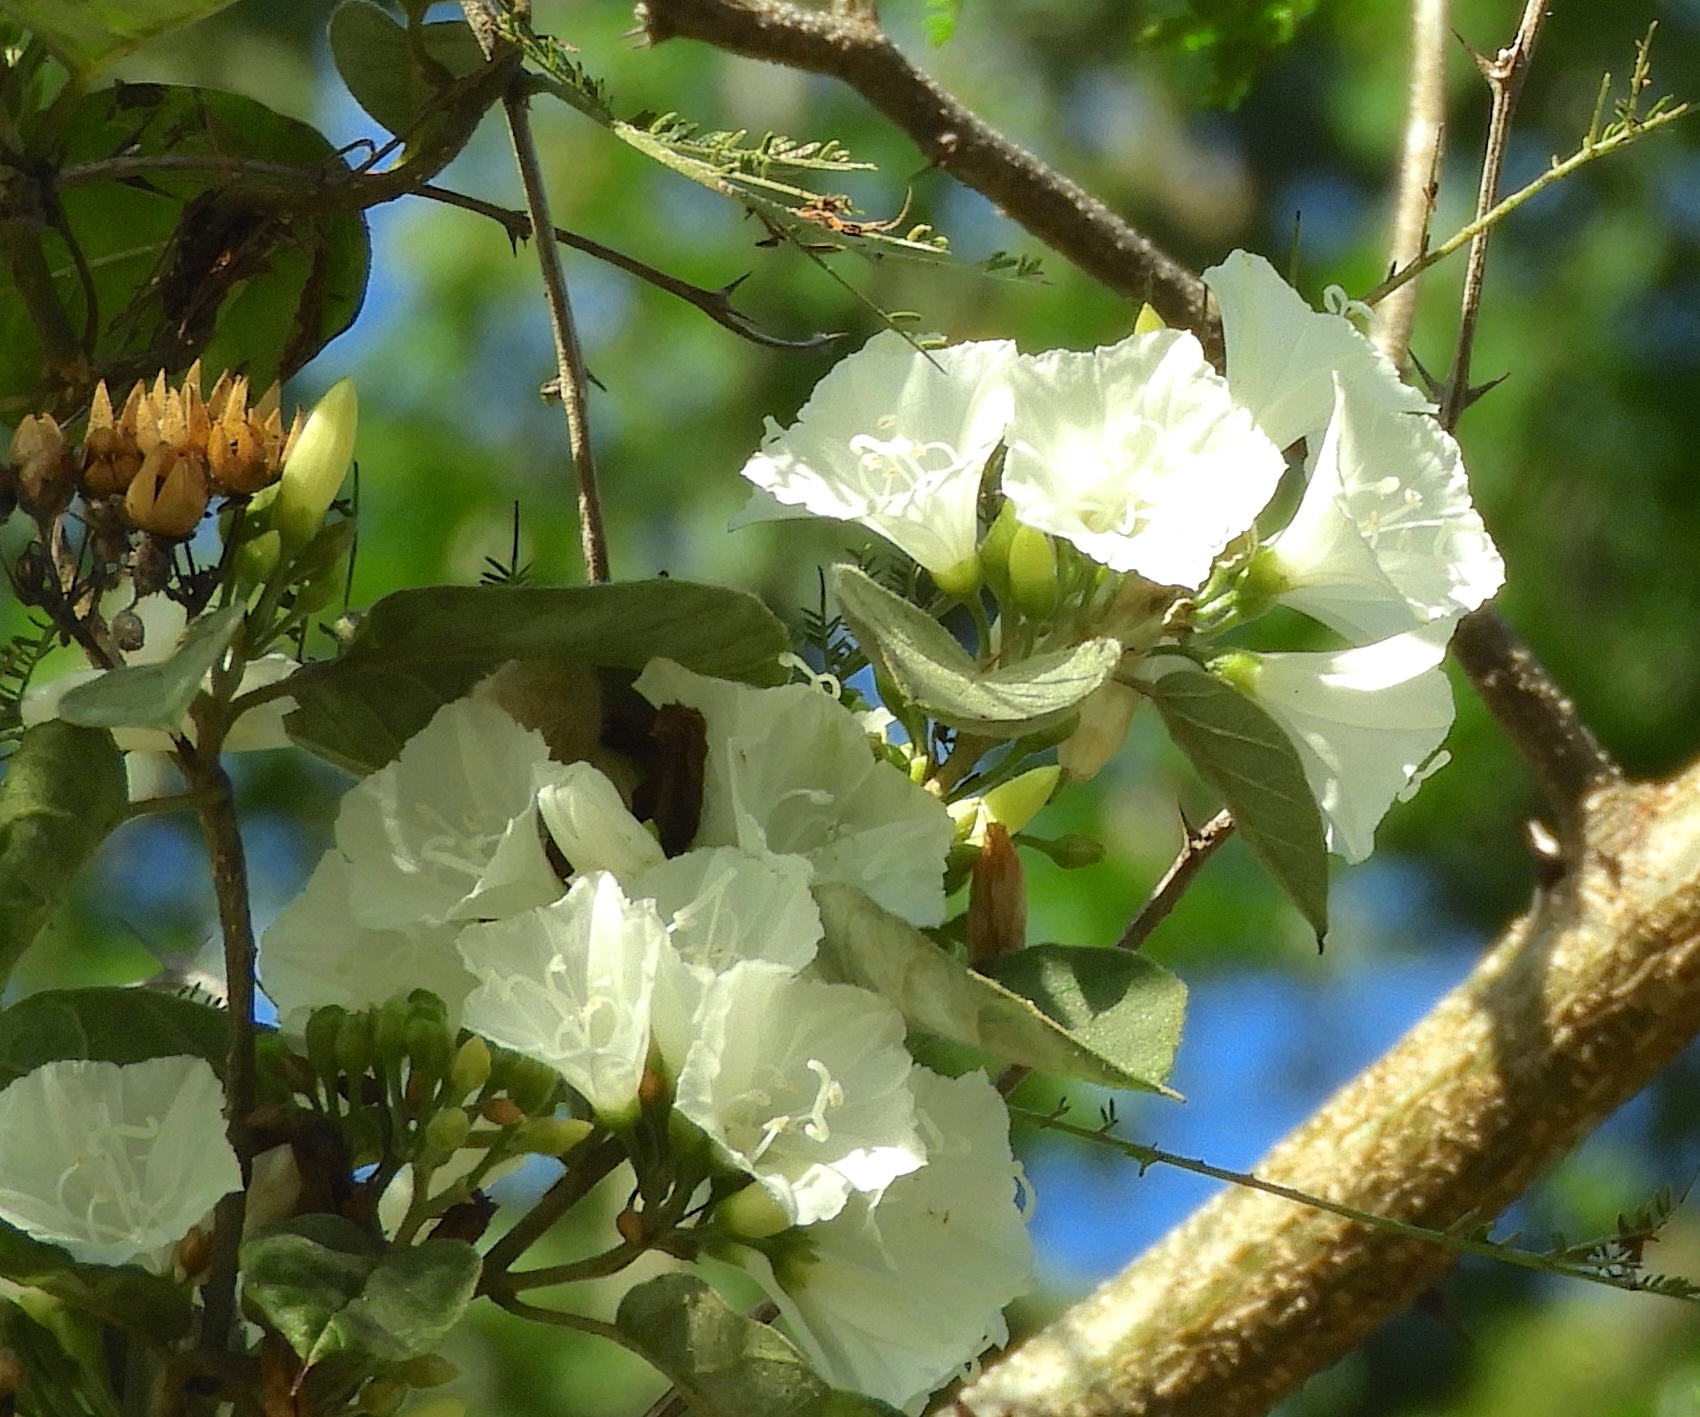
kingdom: Plantae
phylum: Tracheophyta
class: Magnoliopsida
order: Solanales
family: Convolvulaceae
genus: Jacquemontia
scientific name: Jacquemontia nodiflora
